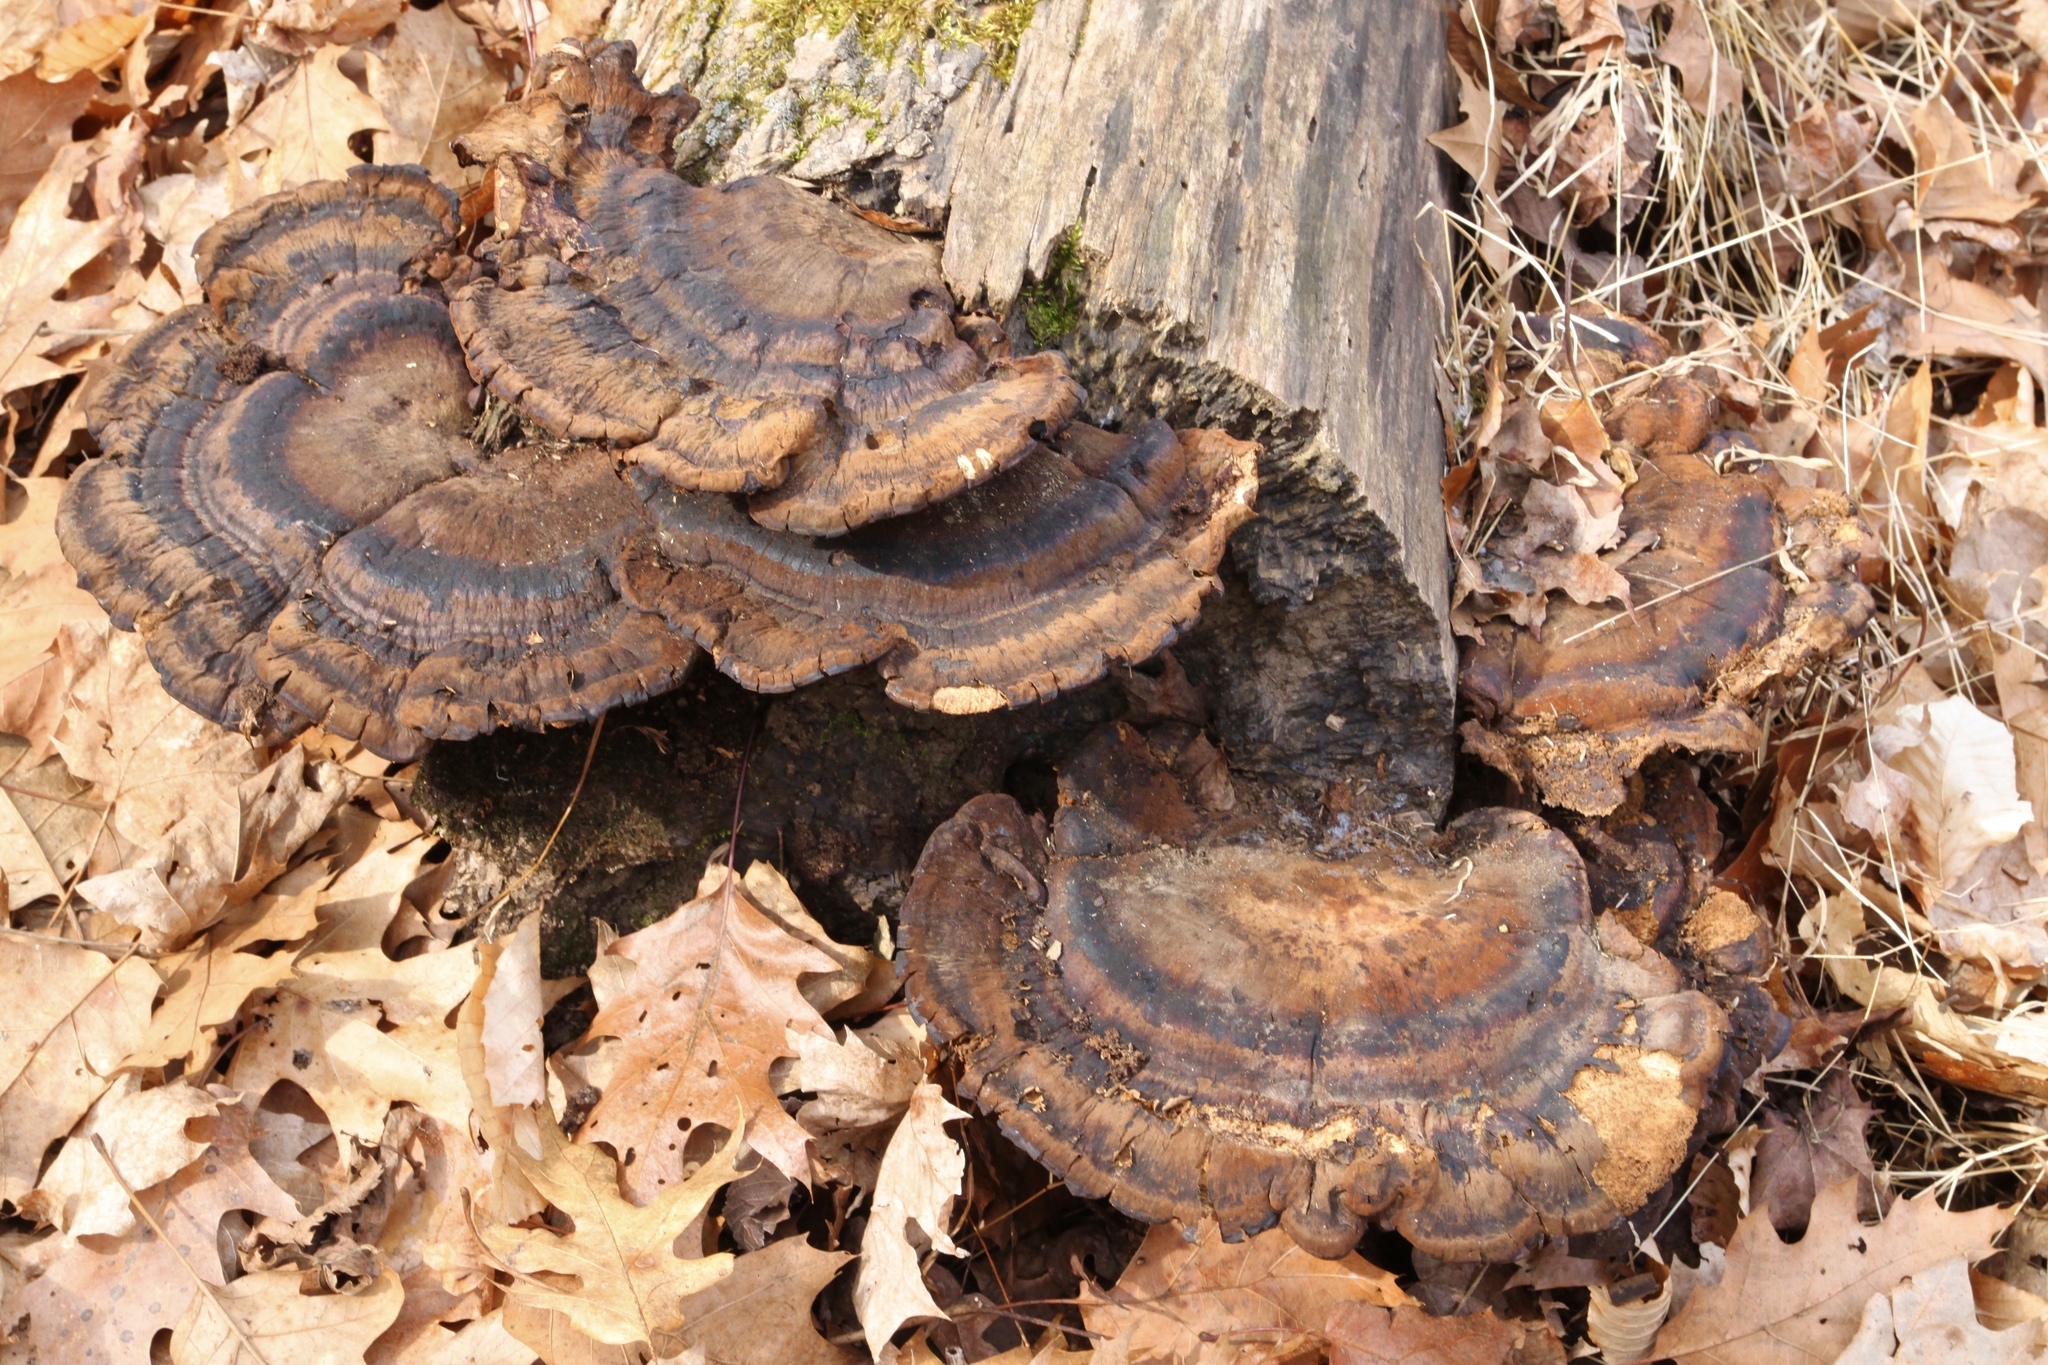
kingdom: Fungi
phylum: Basidiomycota
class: Agaricomycetes
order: Polyporales
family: Ischnodermataceae
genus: Ischnoderma
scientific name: Ischnoderma resinosum
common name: Resinous polypore
